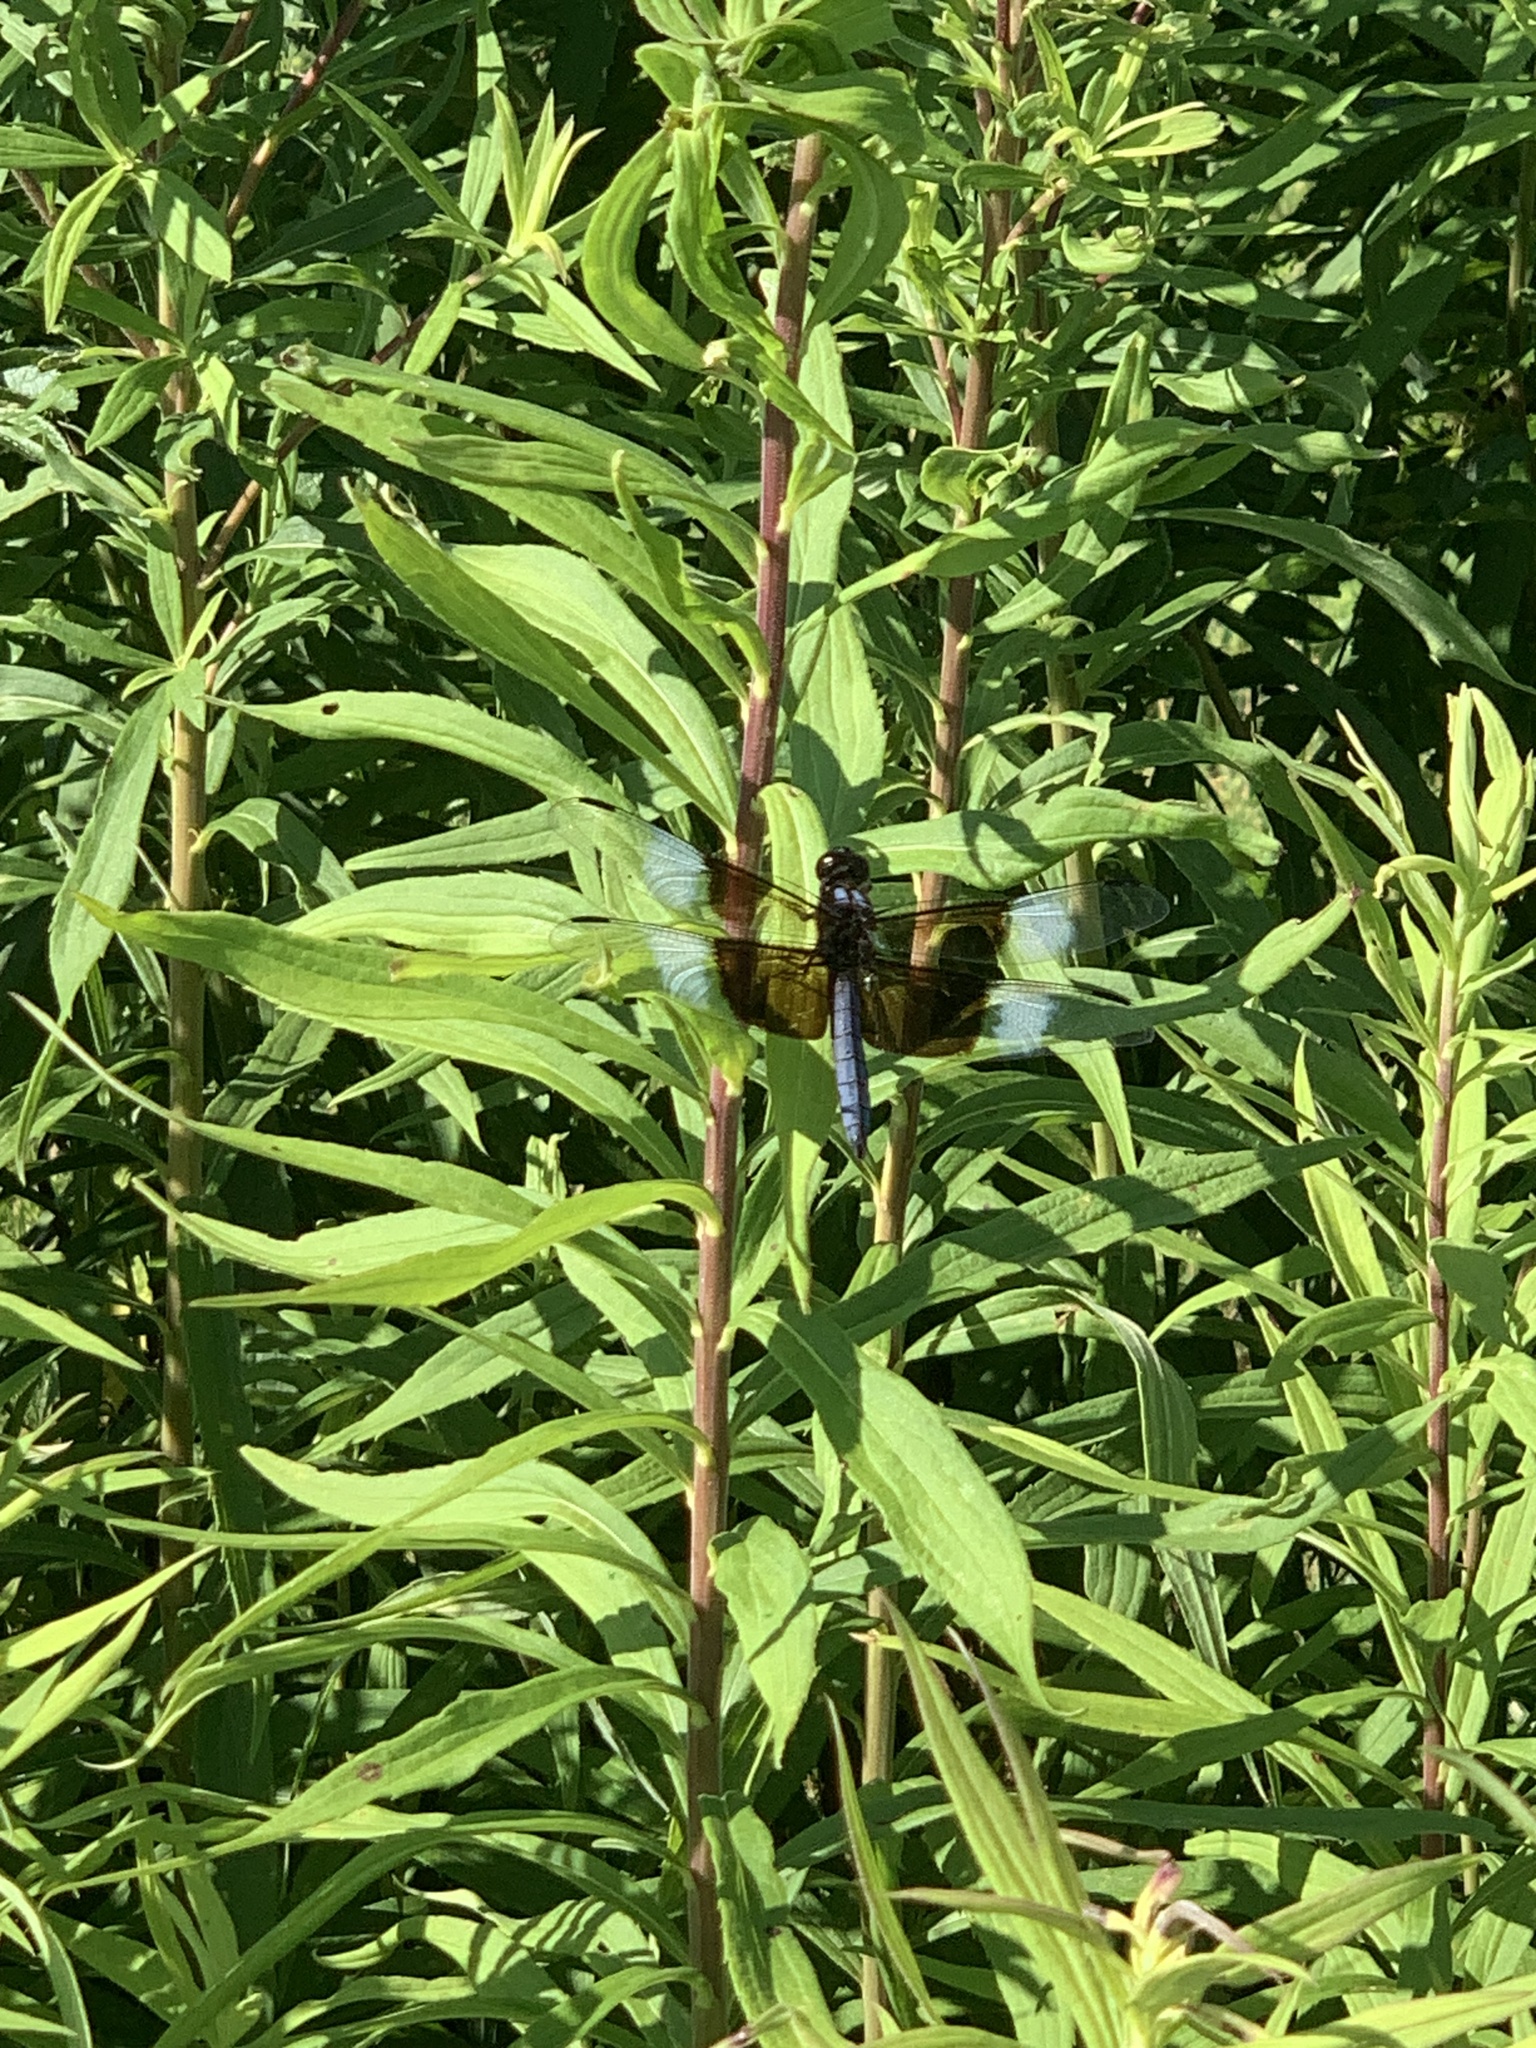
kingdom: Animalia
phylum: Arthropoda
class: Insecta
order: Odonata
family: Libellulidae
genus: Libellula
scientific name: Libellula luctuosa
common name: Widow skimmer
